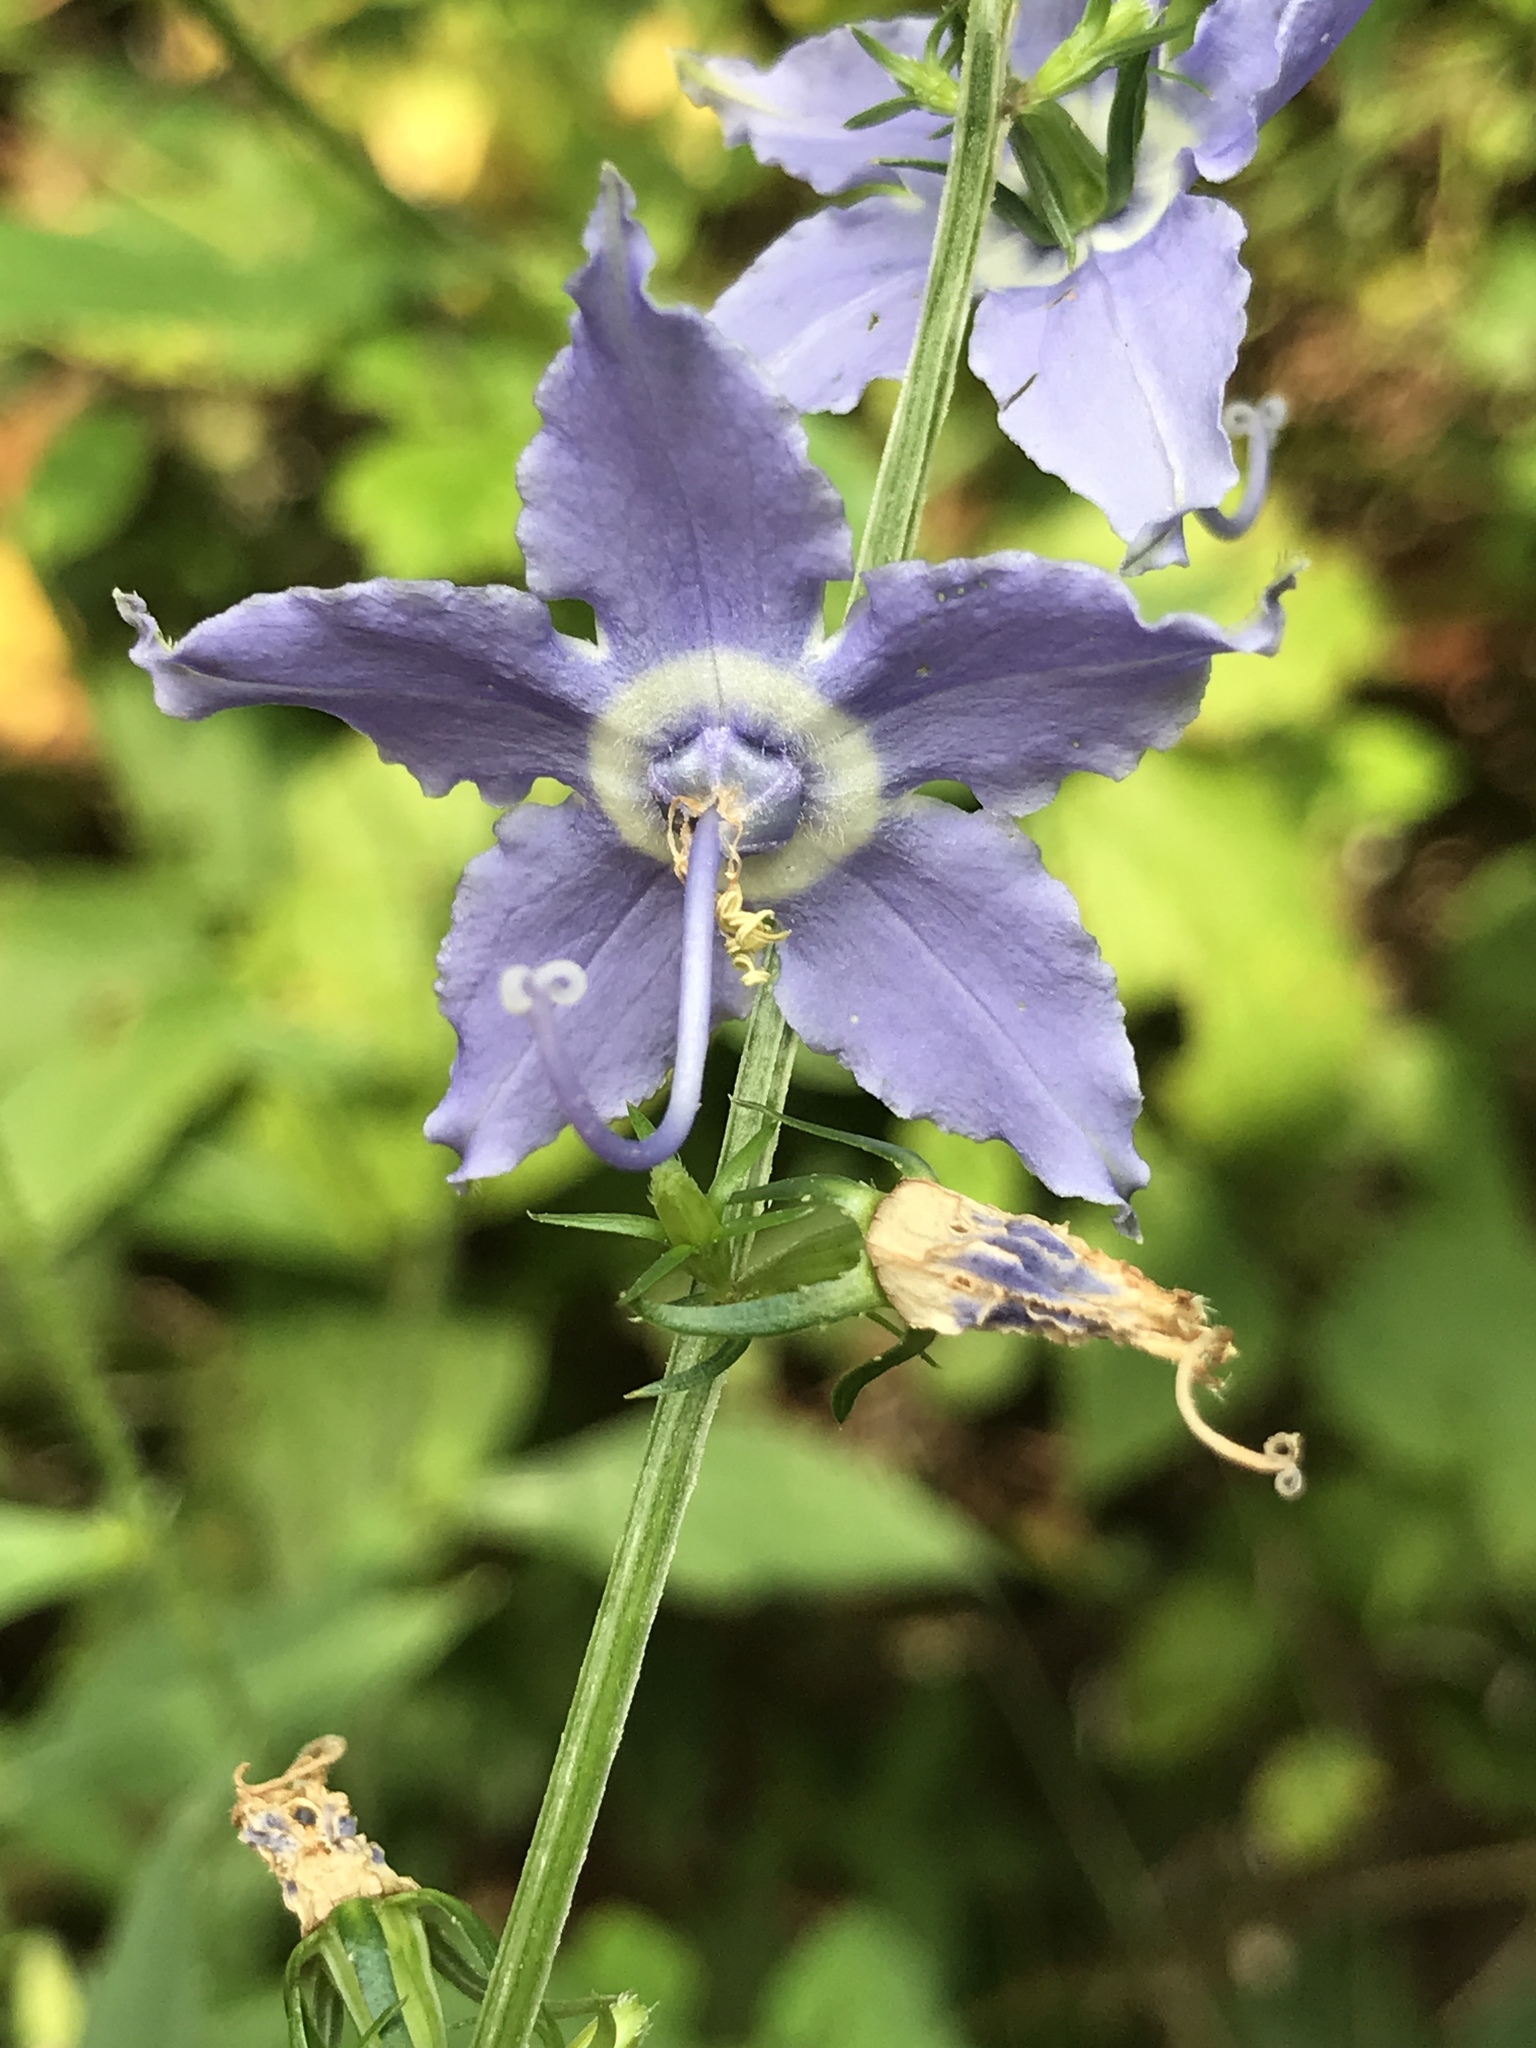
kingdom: Plantae
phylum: Tracheophyta
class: Magnoliopsida
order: Asterales
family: Campanulaceae
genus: Campanulastrum
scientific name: Campanulastrum americanum
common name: American bellflower
